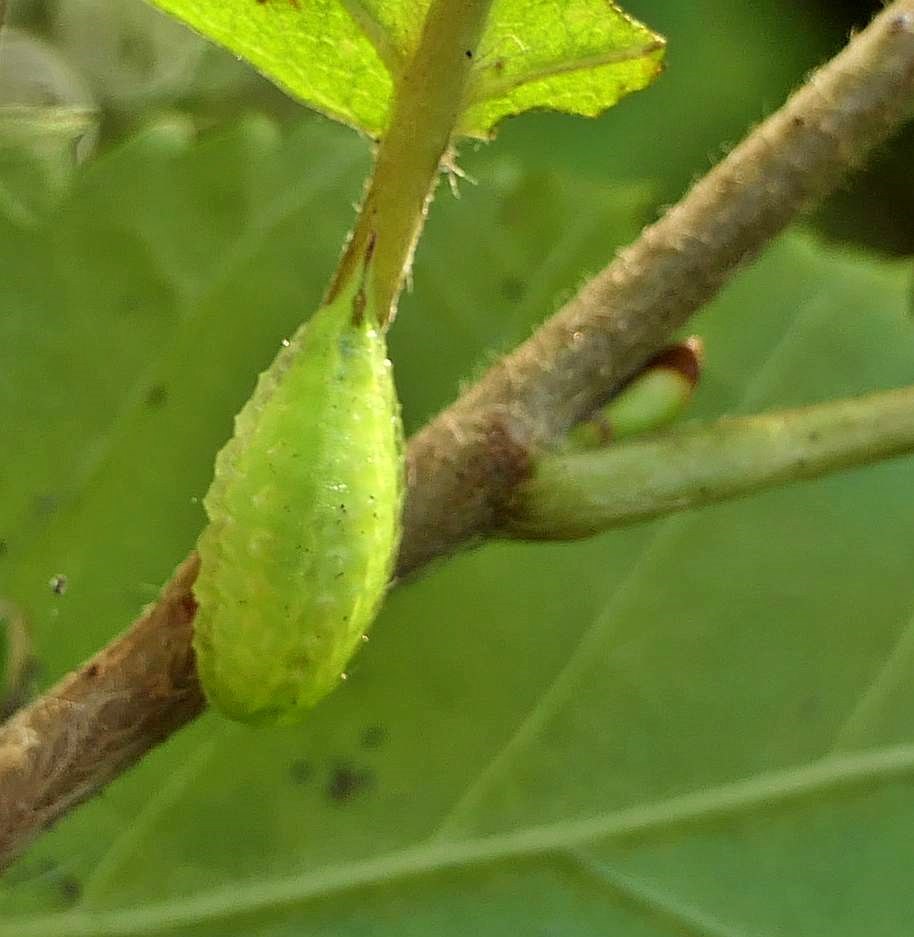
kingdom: Animalia
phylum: Arthropoda
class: Insecta
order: Lepidoptera
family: Limacodidae
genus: Packardia
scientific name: Packardia elegans
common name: Elegant tailed slug moth
